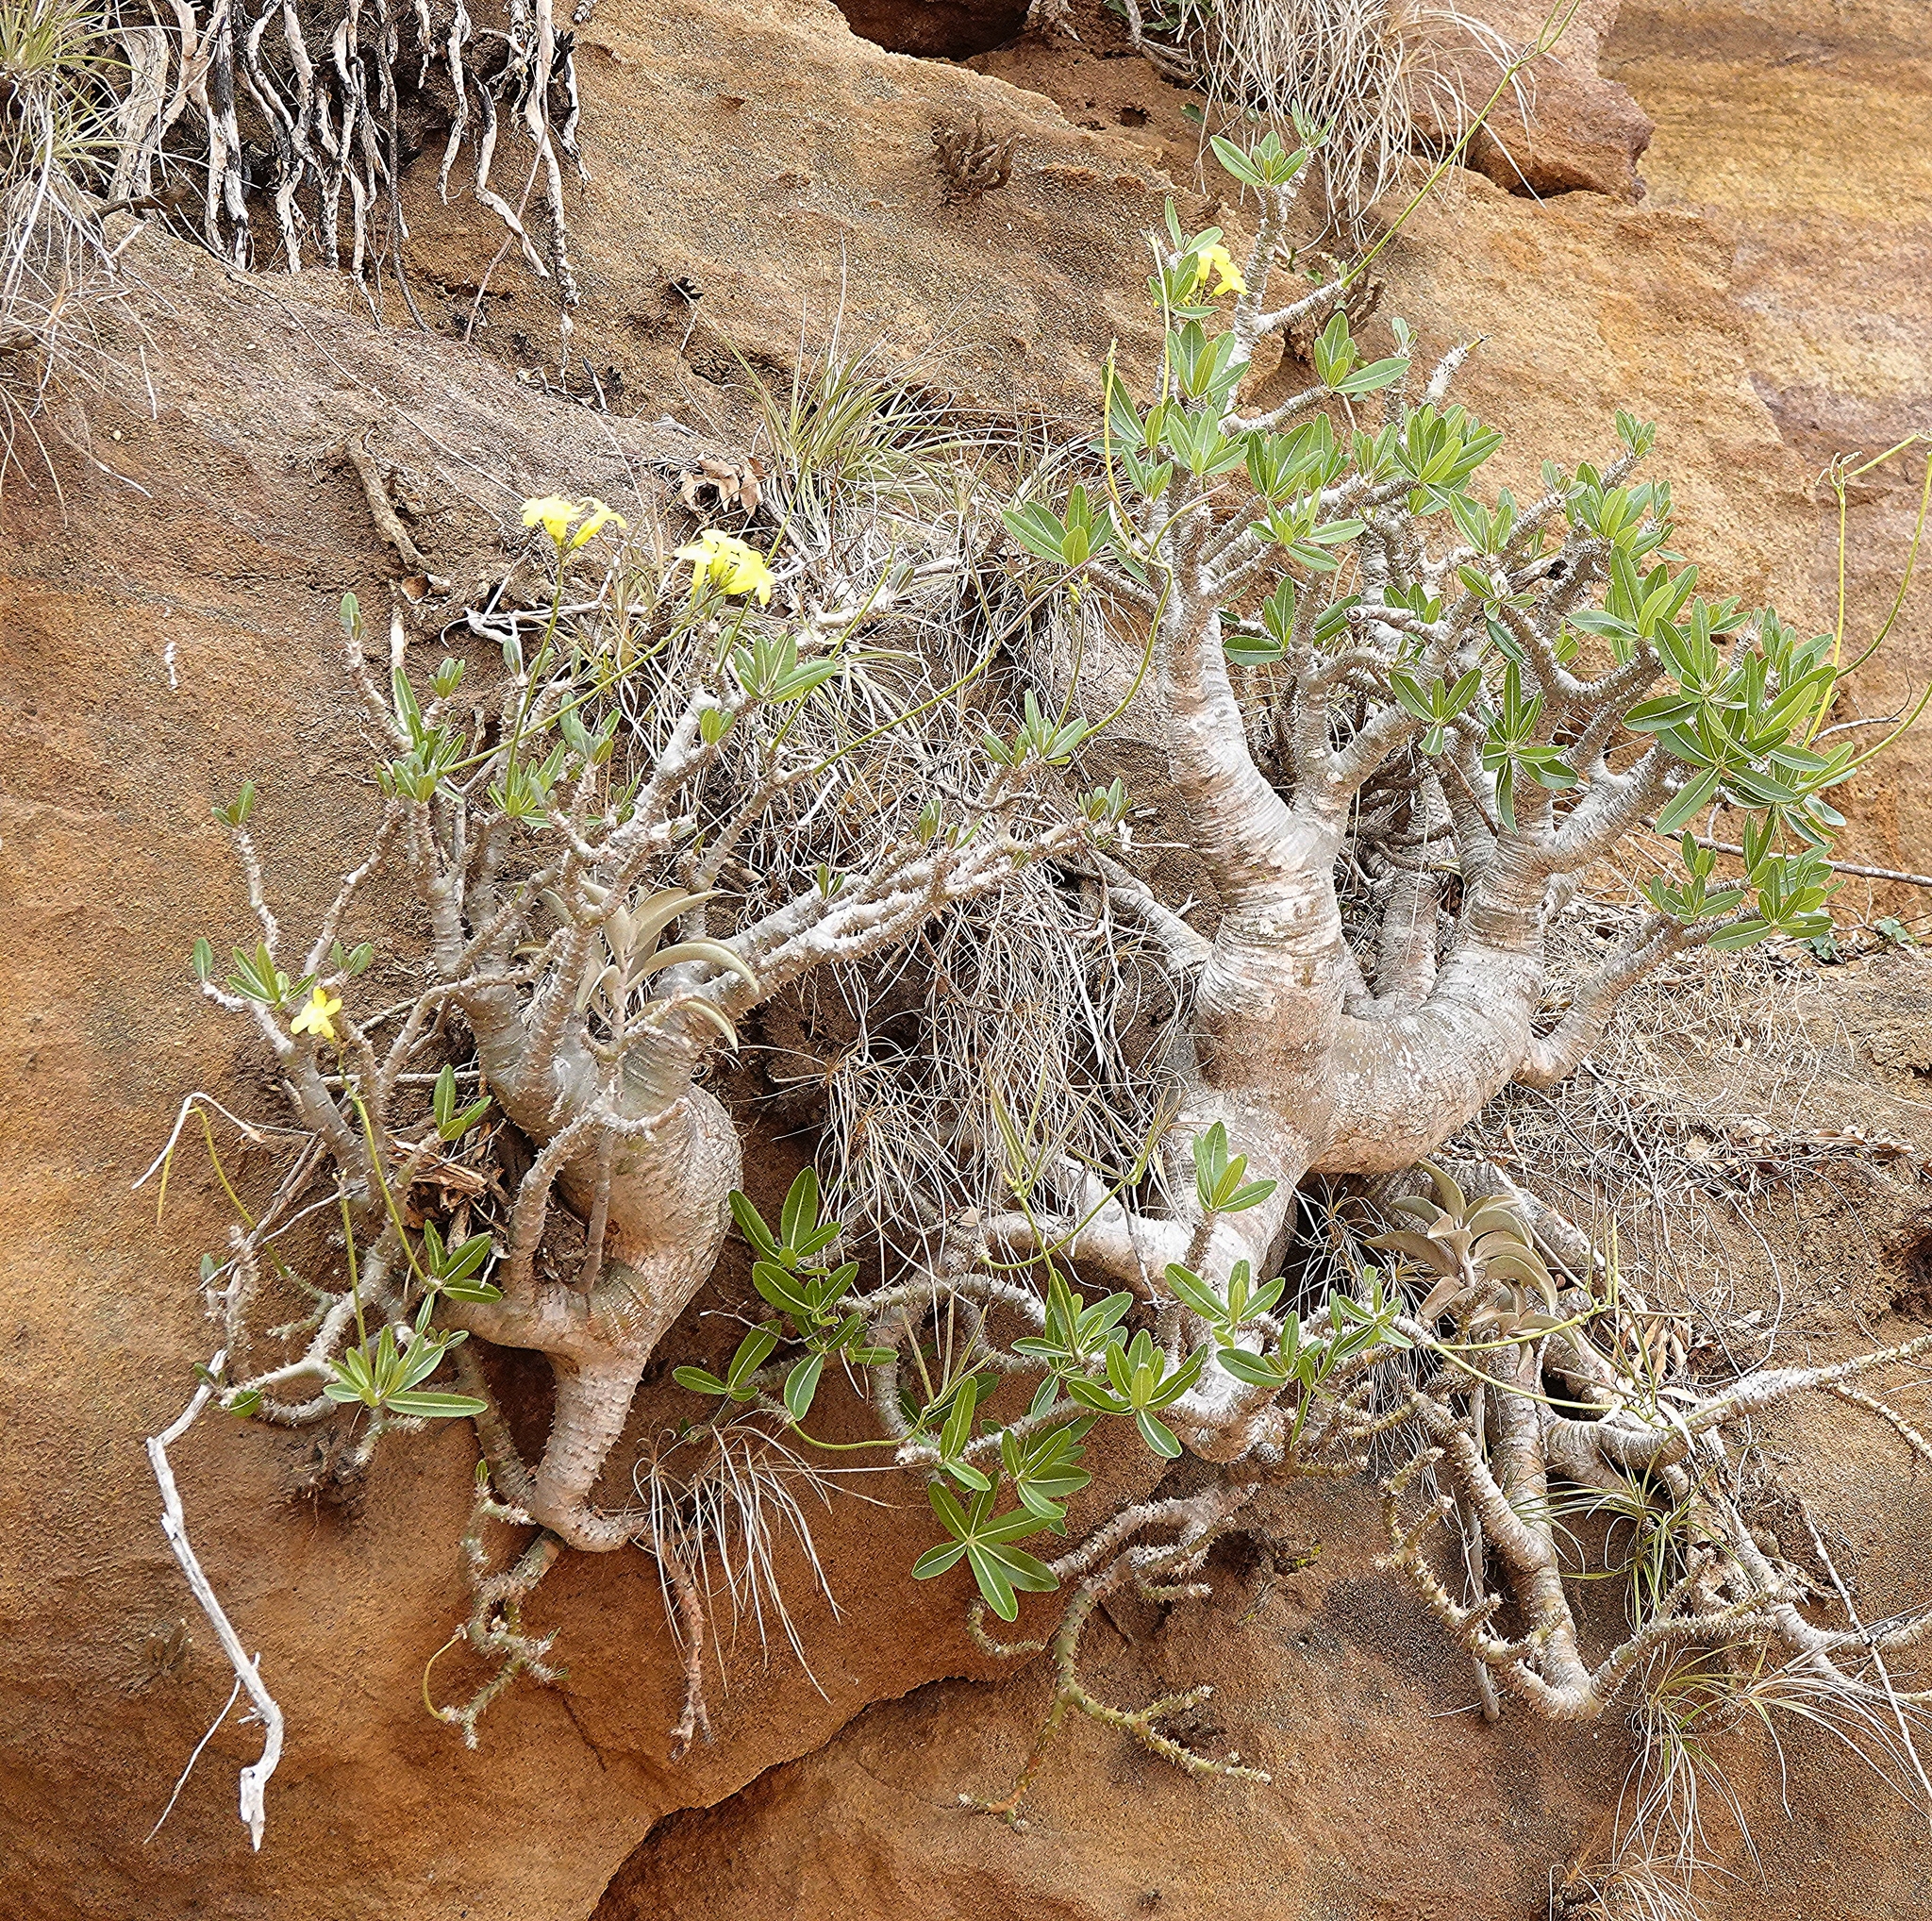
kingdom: Plantae
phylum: Tracheophyta
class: Magnoliopsida
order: Gentianales
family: Apocynaceae
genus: Pachypodium
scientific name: Pachypodium rosulatum
